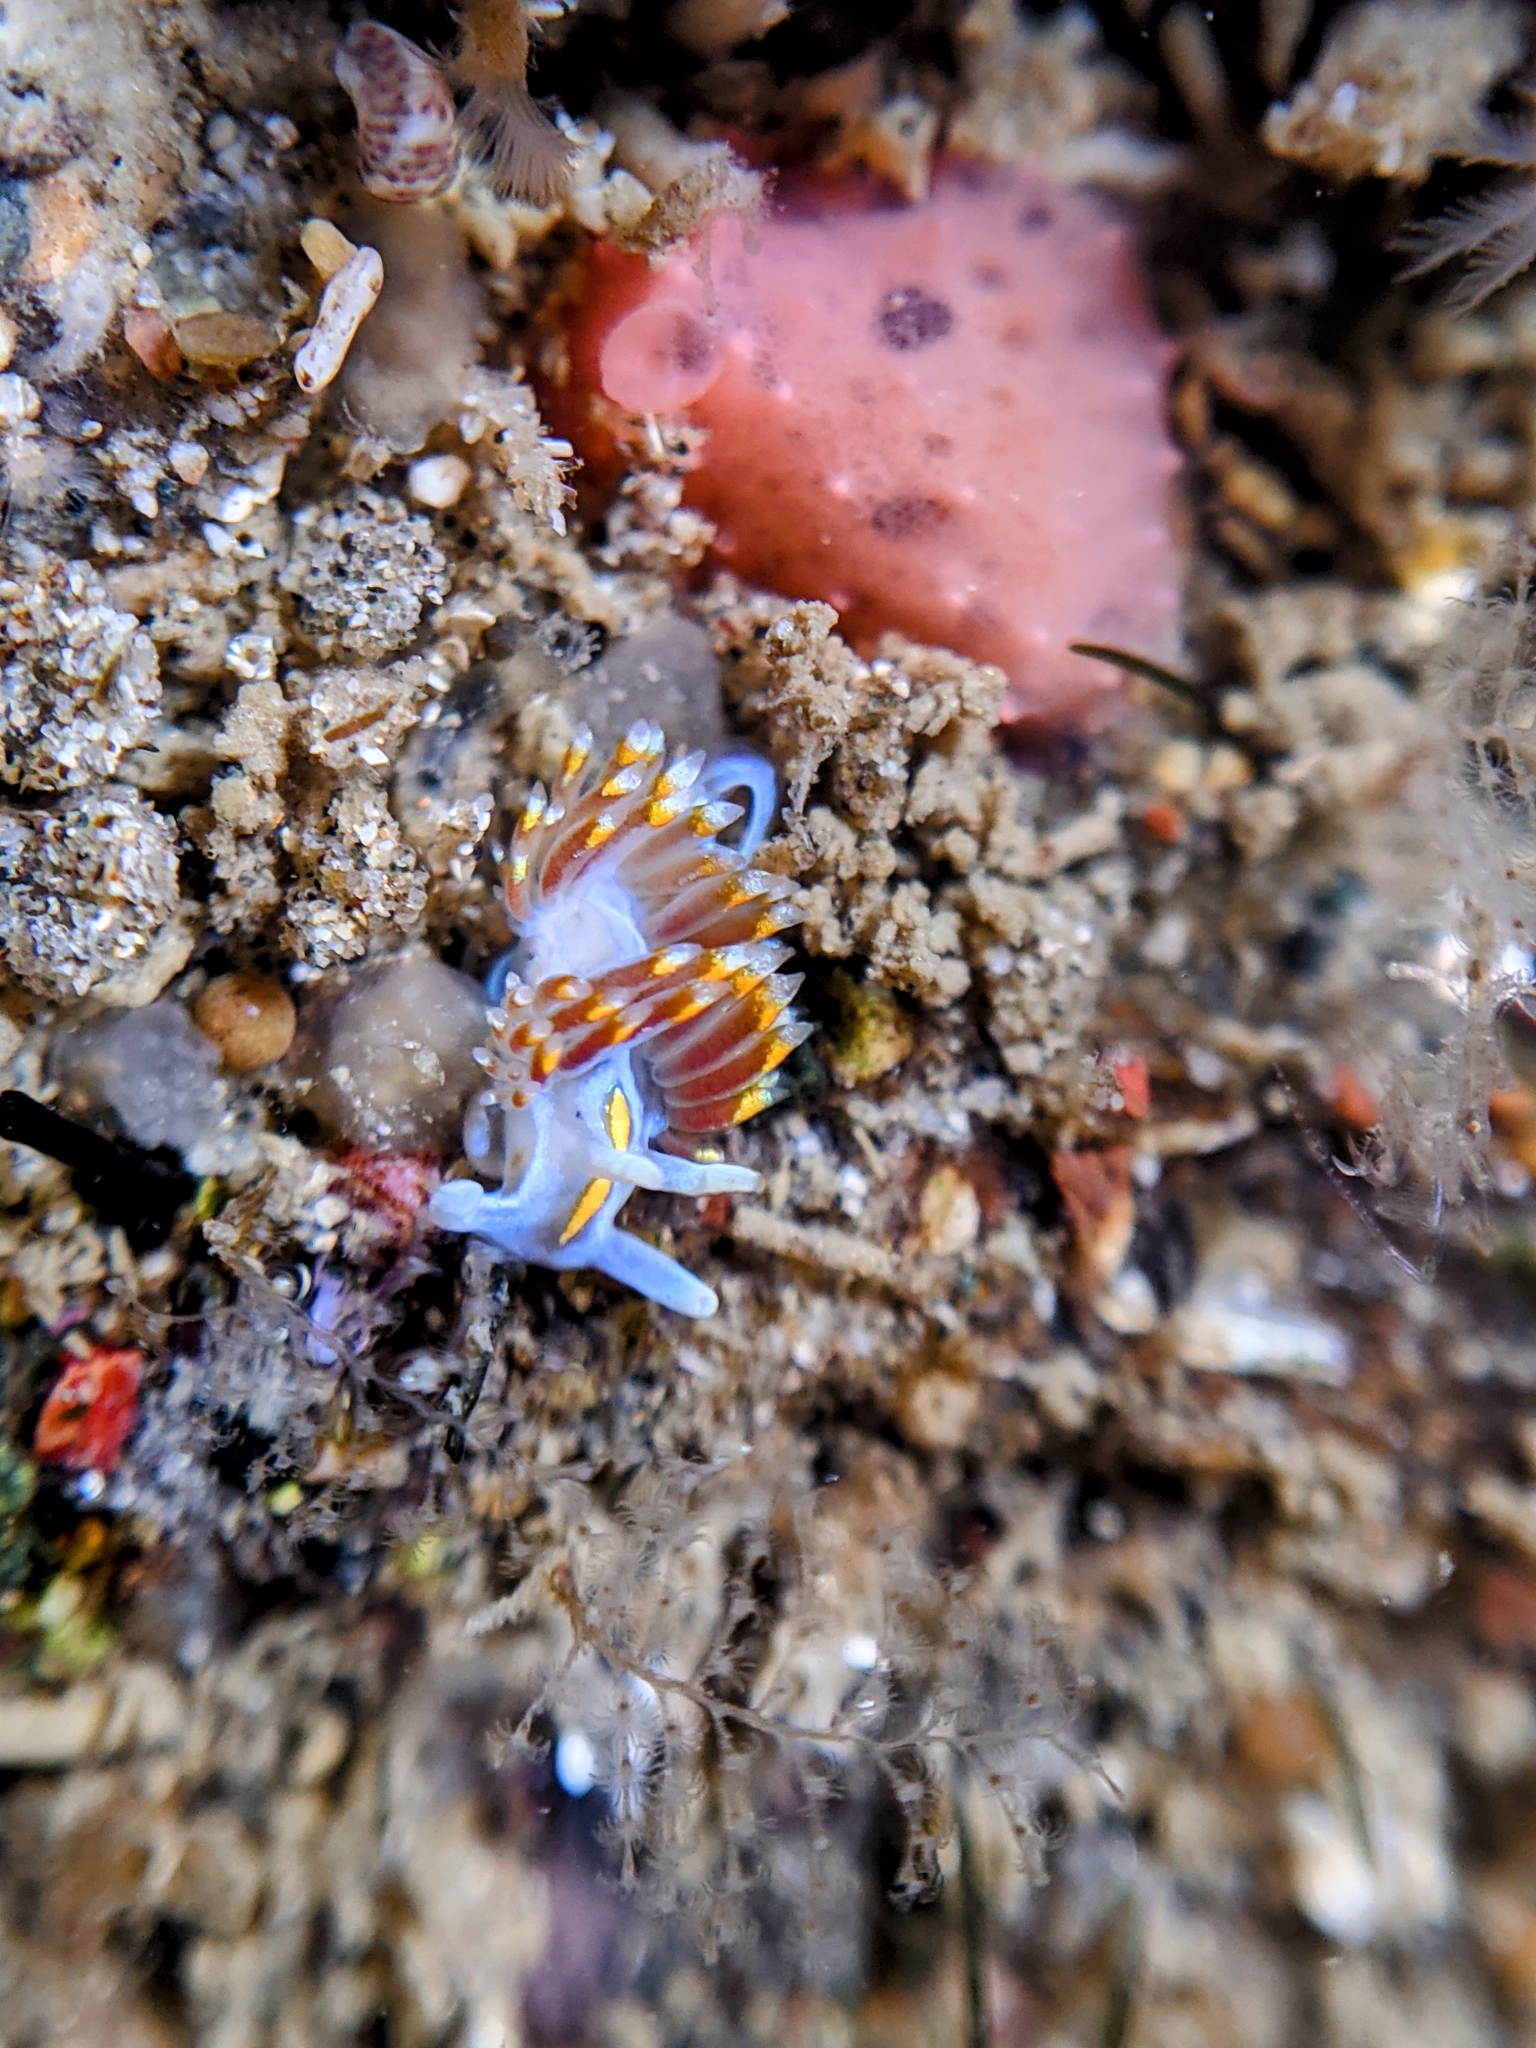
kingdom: Animalia
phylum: Mollusca
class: Gastropoda
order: Nudibranchia
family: Myrrhinidae
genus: Hermissenda
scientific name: Hermissenda opalescens
